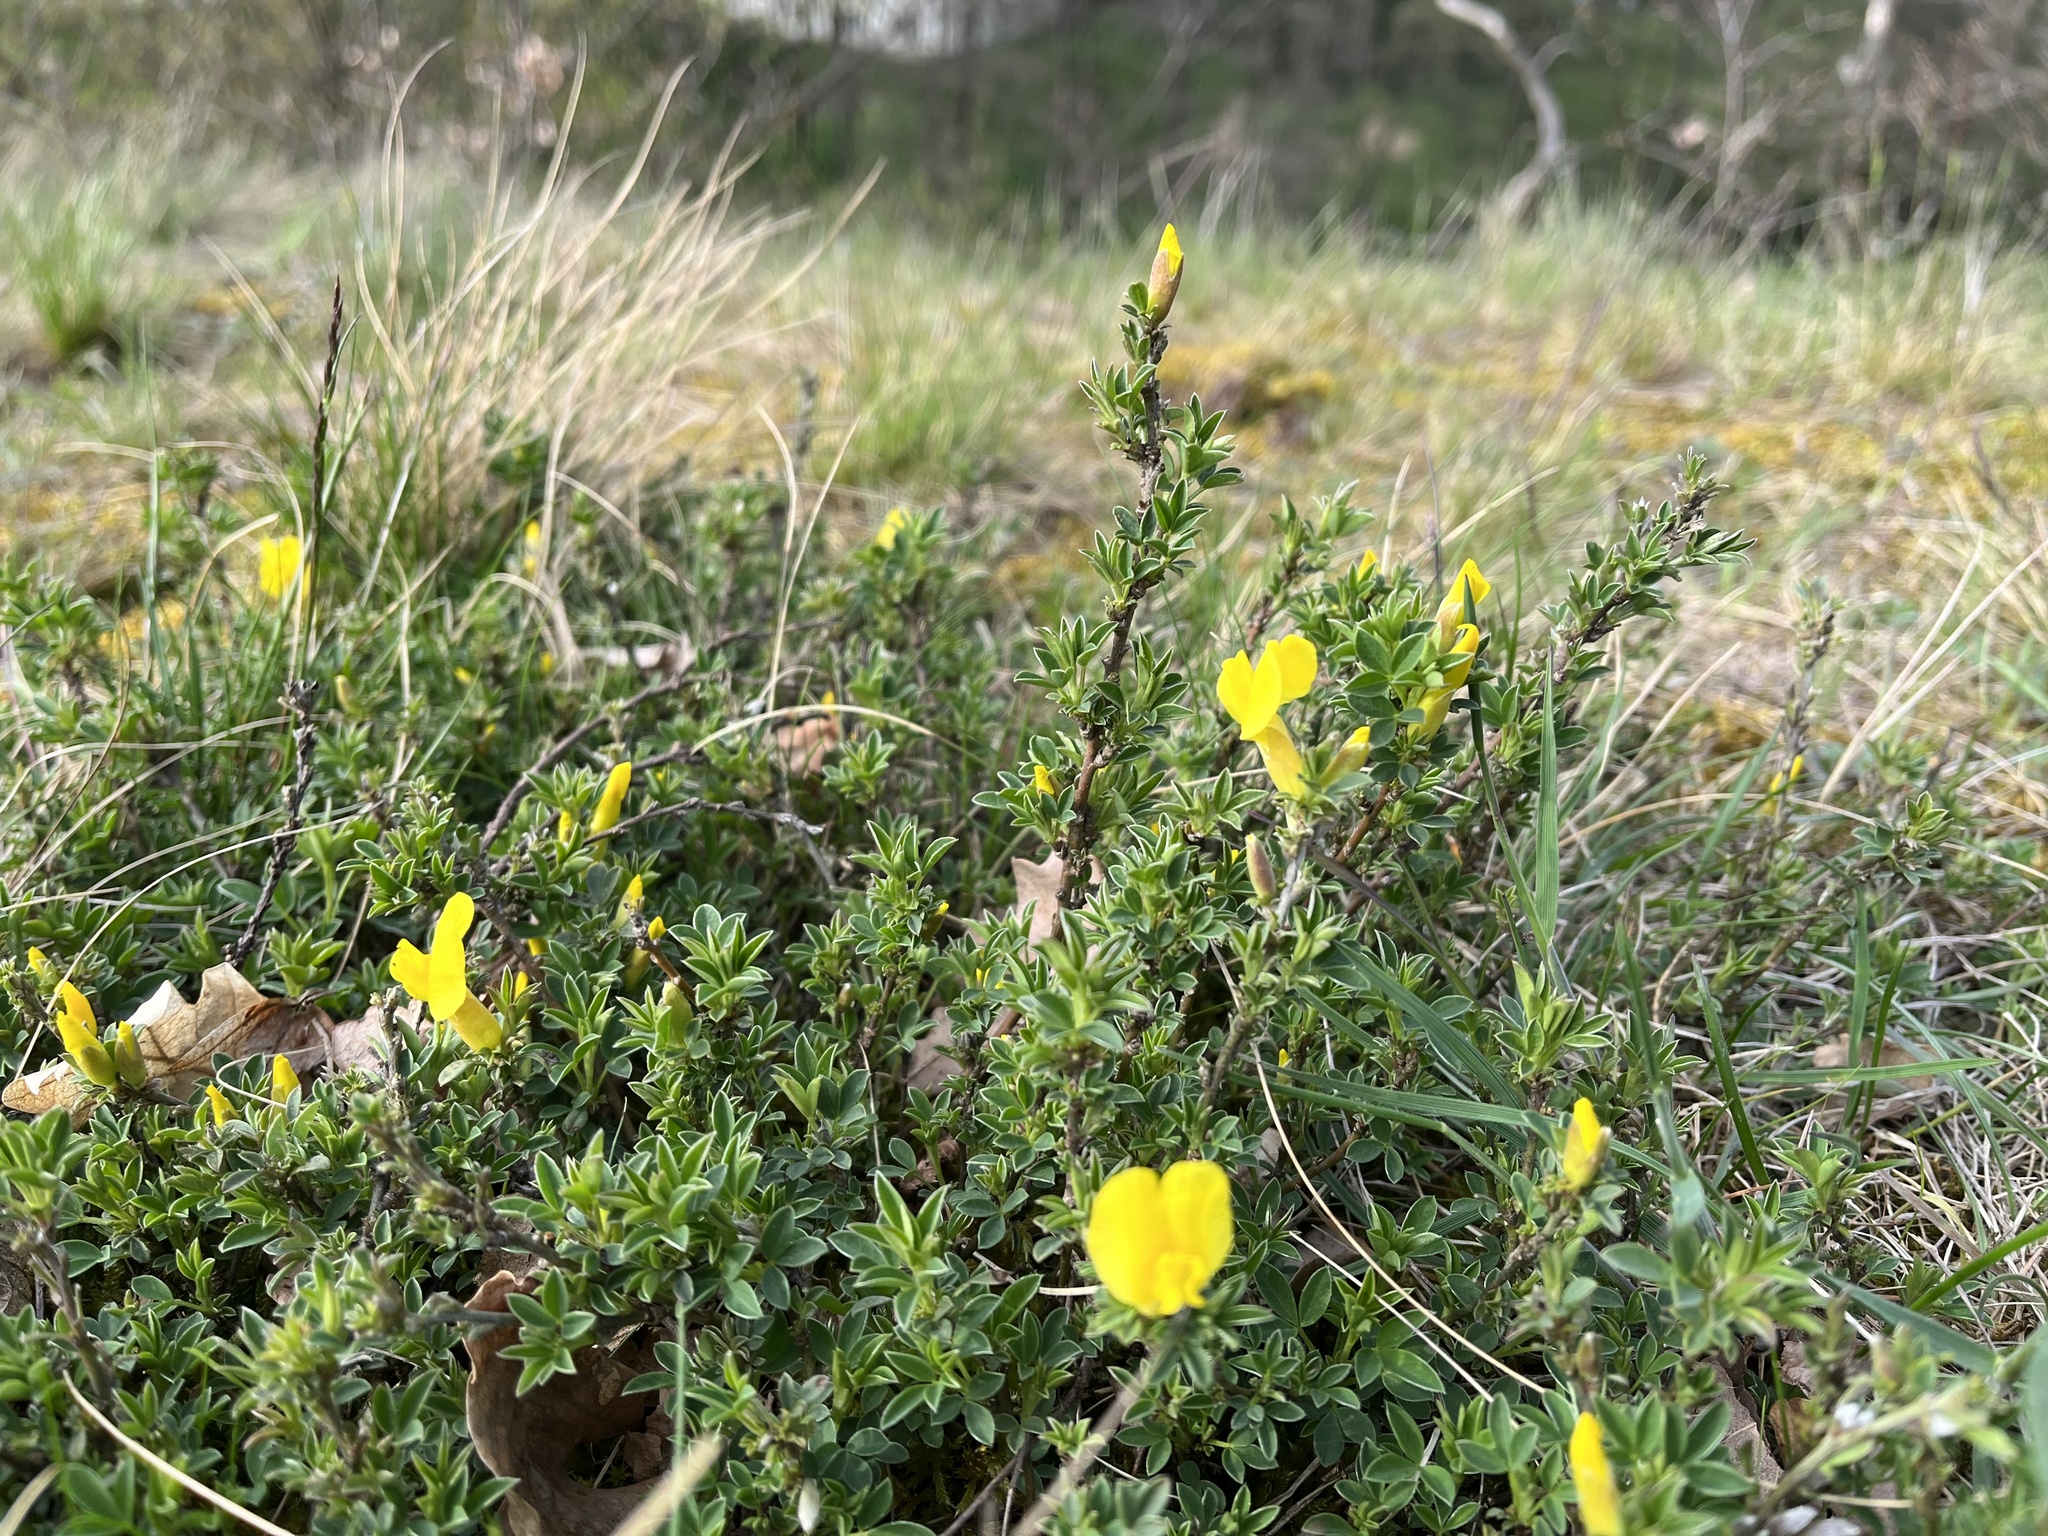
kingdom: Plantae
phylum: Tracheophyta
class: Magnoliopsida
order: Fabales
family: Fabaceae
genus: Chamaecytisus
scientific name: Chamaecytisus ratisbonensis
